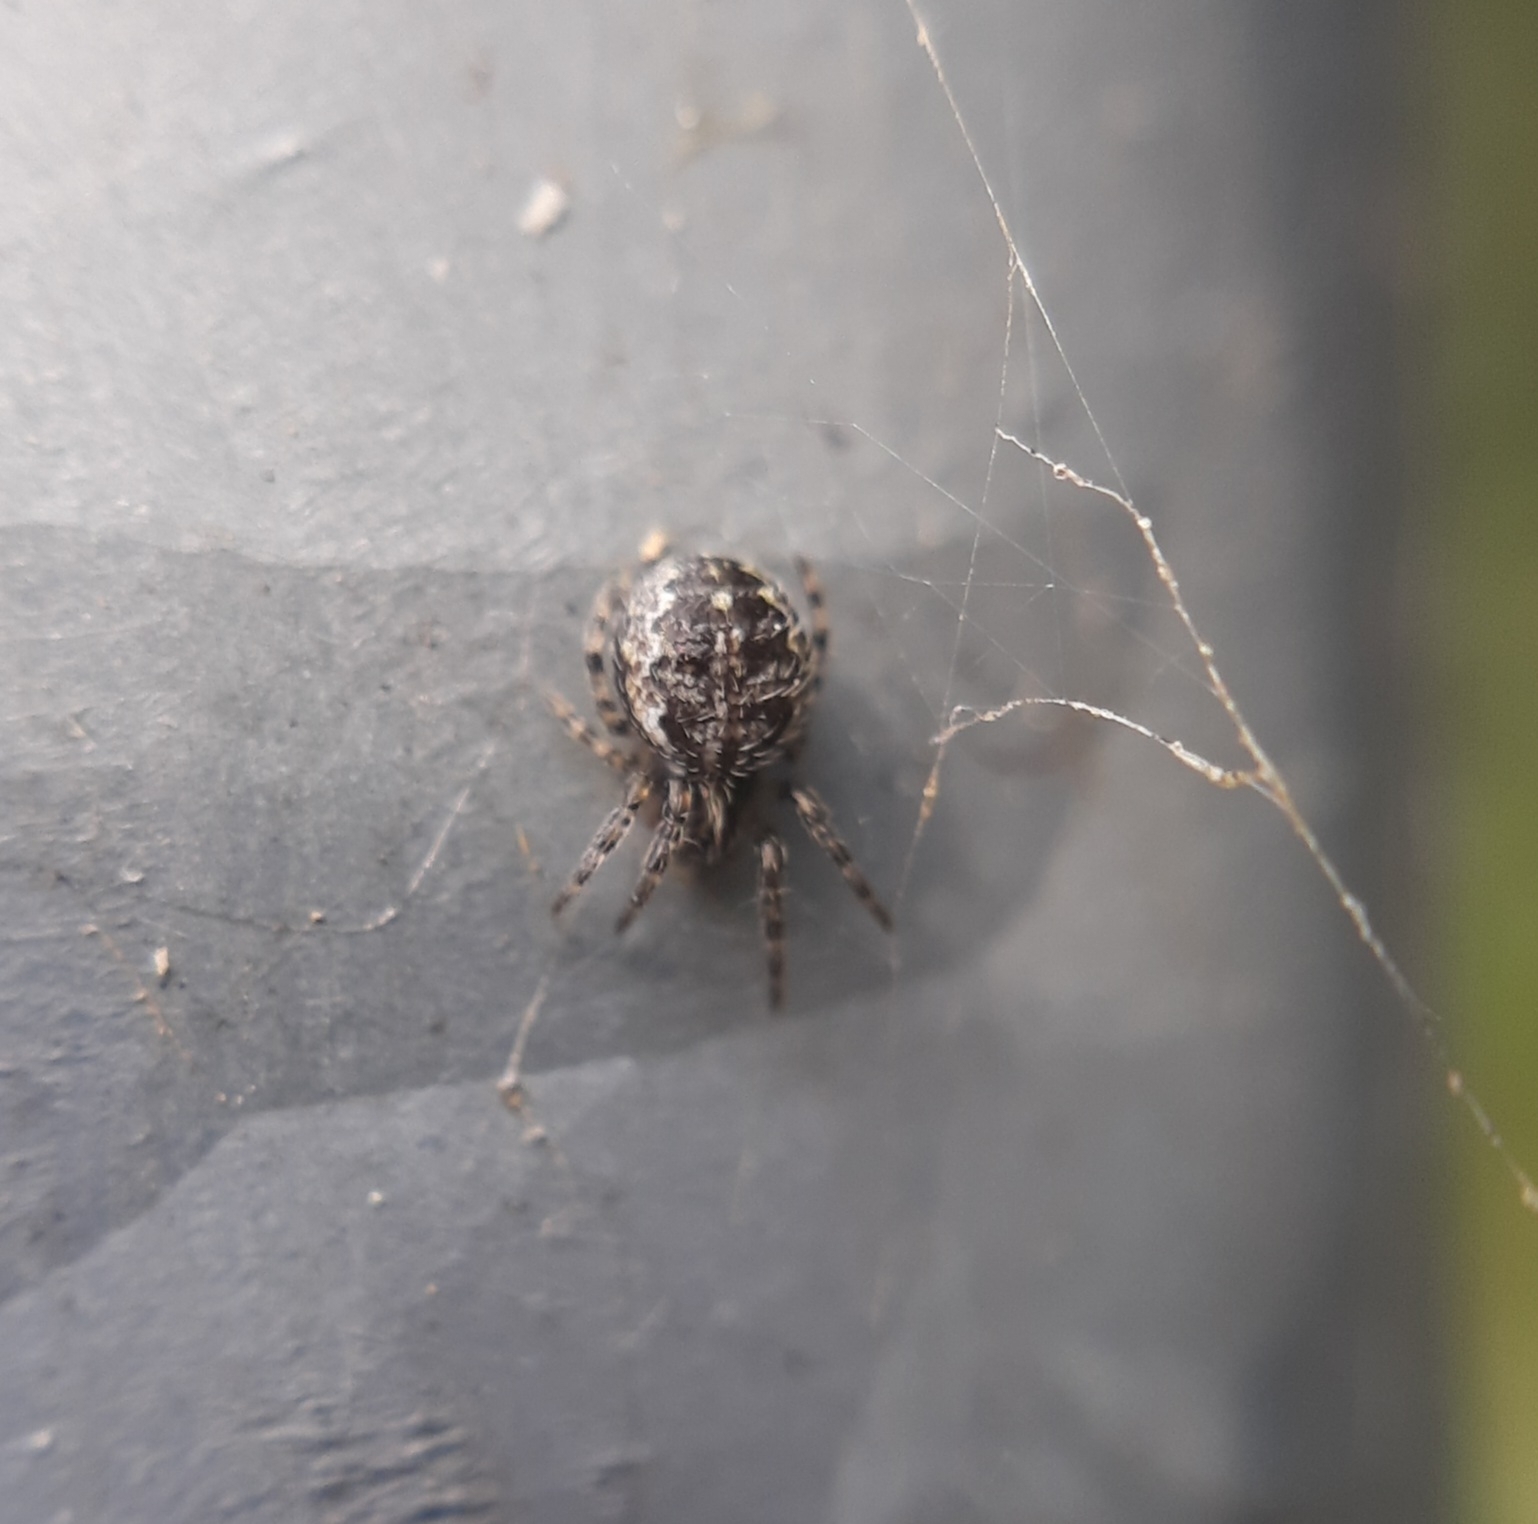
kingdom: Animalia
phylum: Arthropoda
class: Arachnida
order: Araneae
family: Araneidae
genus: Larinioides
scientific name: Larinioides
